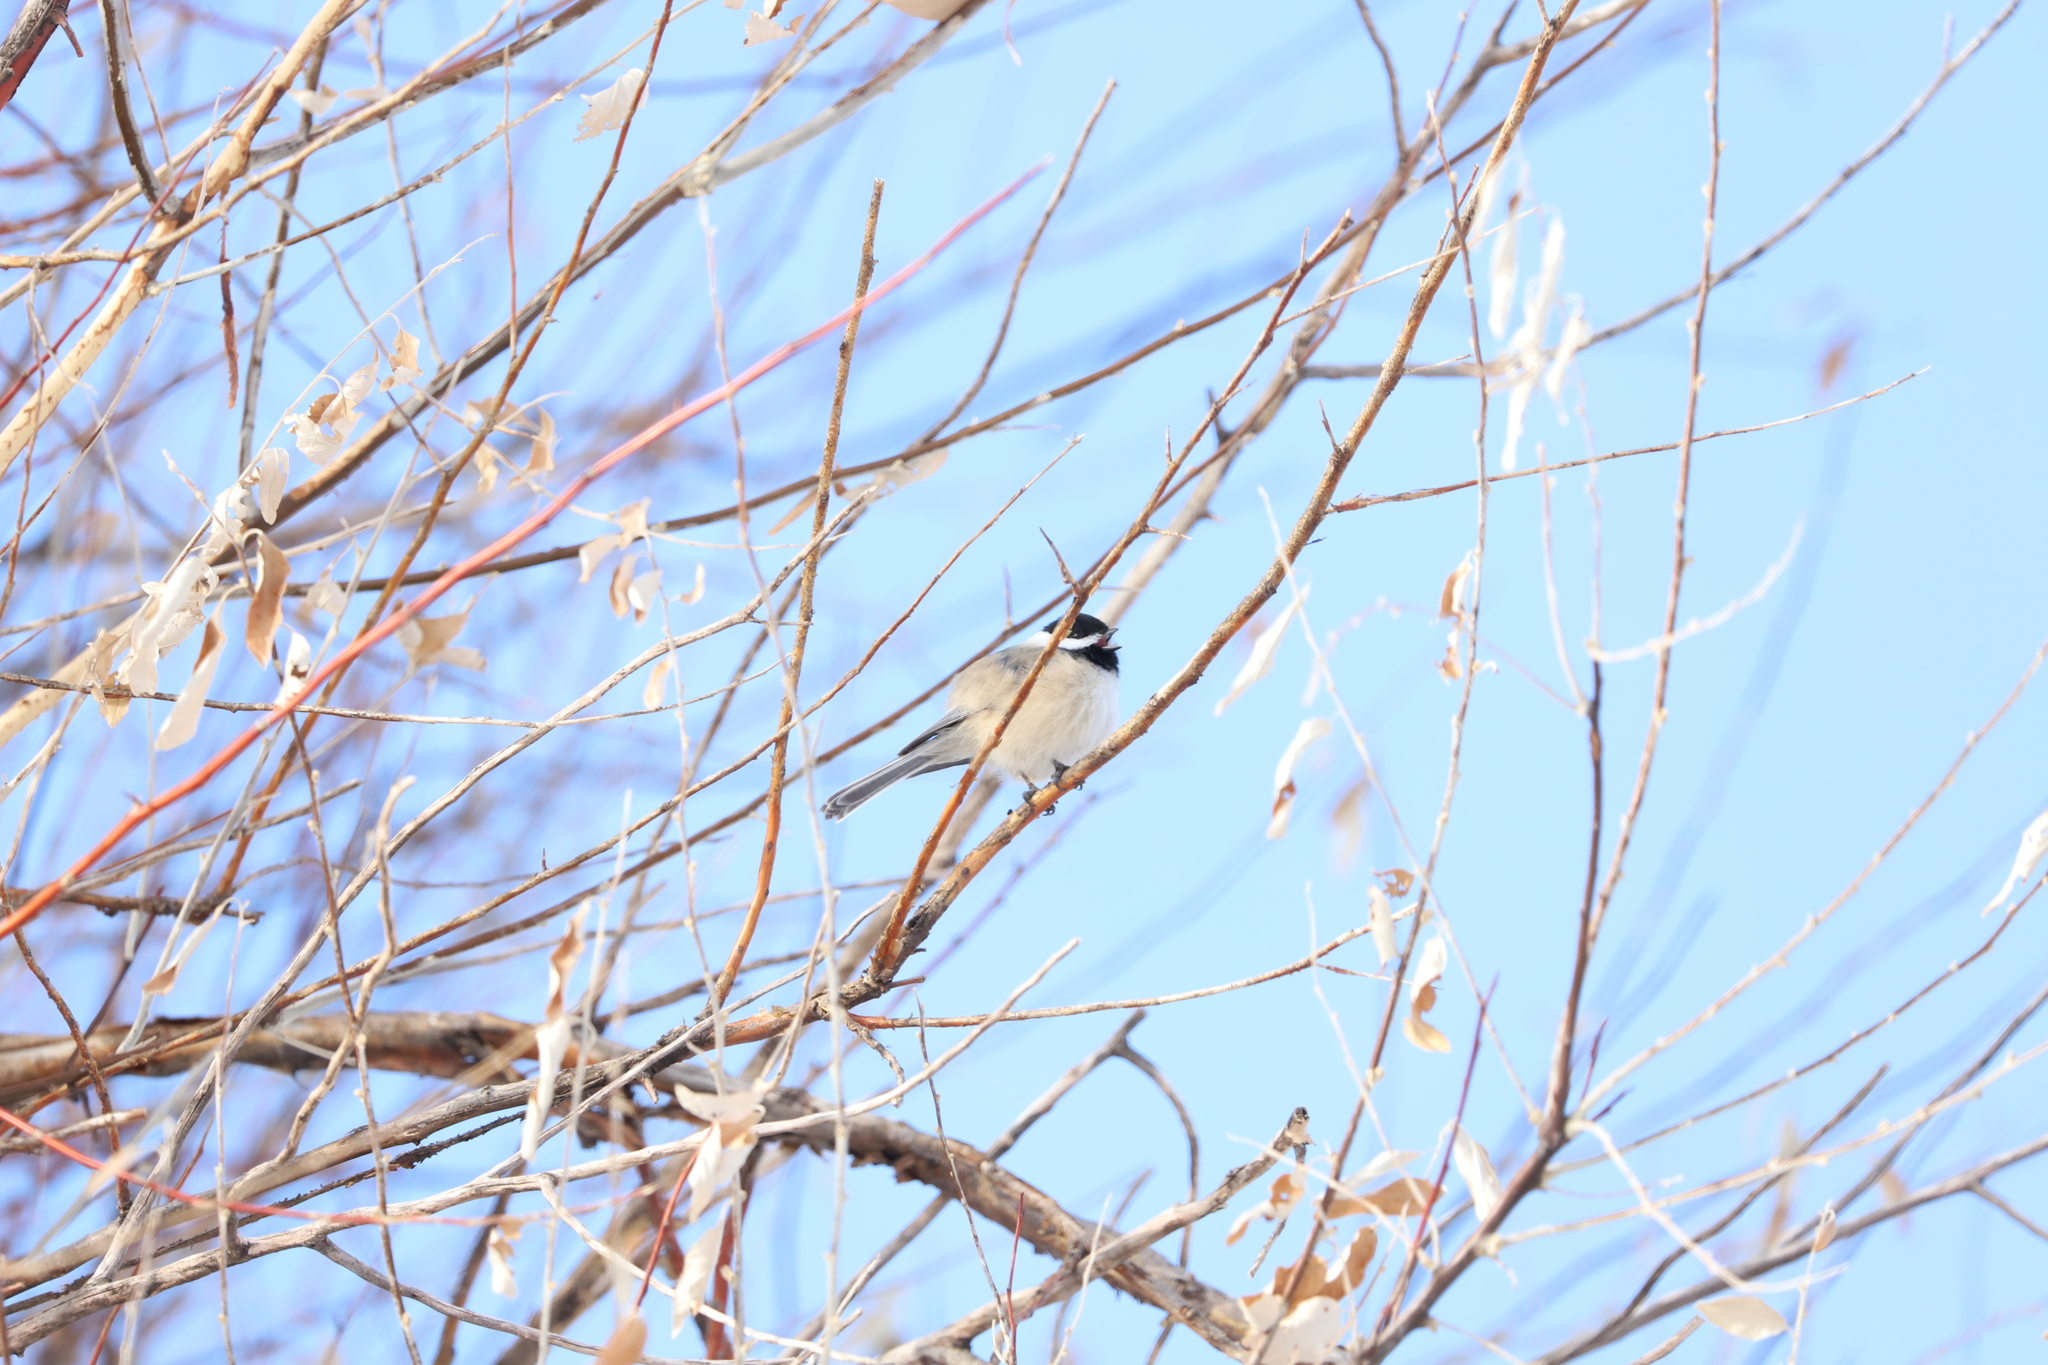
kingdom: Animalia
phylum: Chordata
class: Aves
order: Passeriformes
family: Paridae
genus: Poecile
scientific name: Poecile atricapillus
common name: Black-capped chickadee
